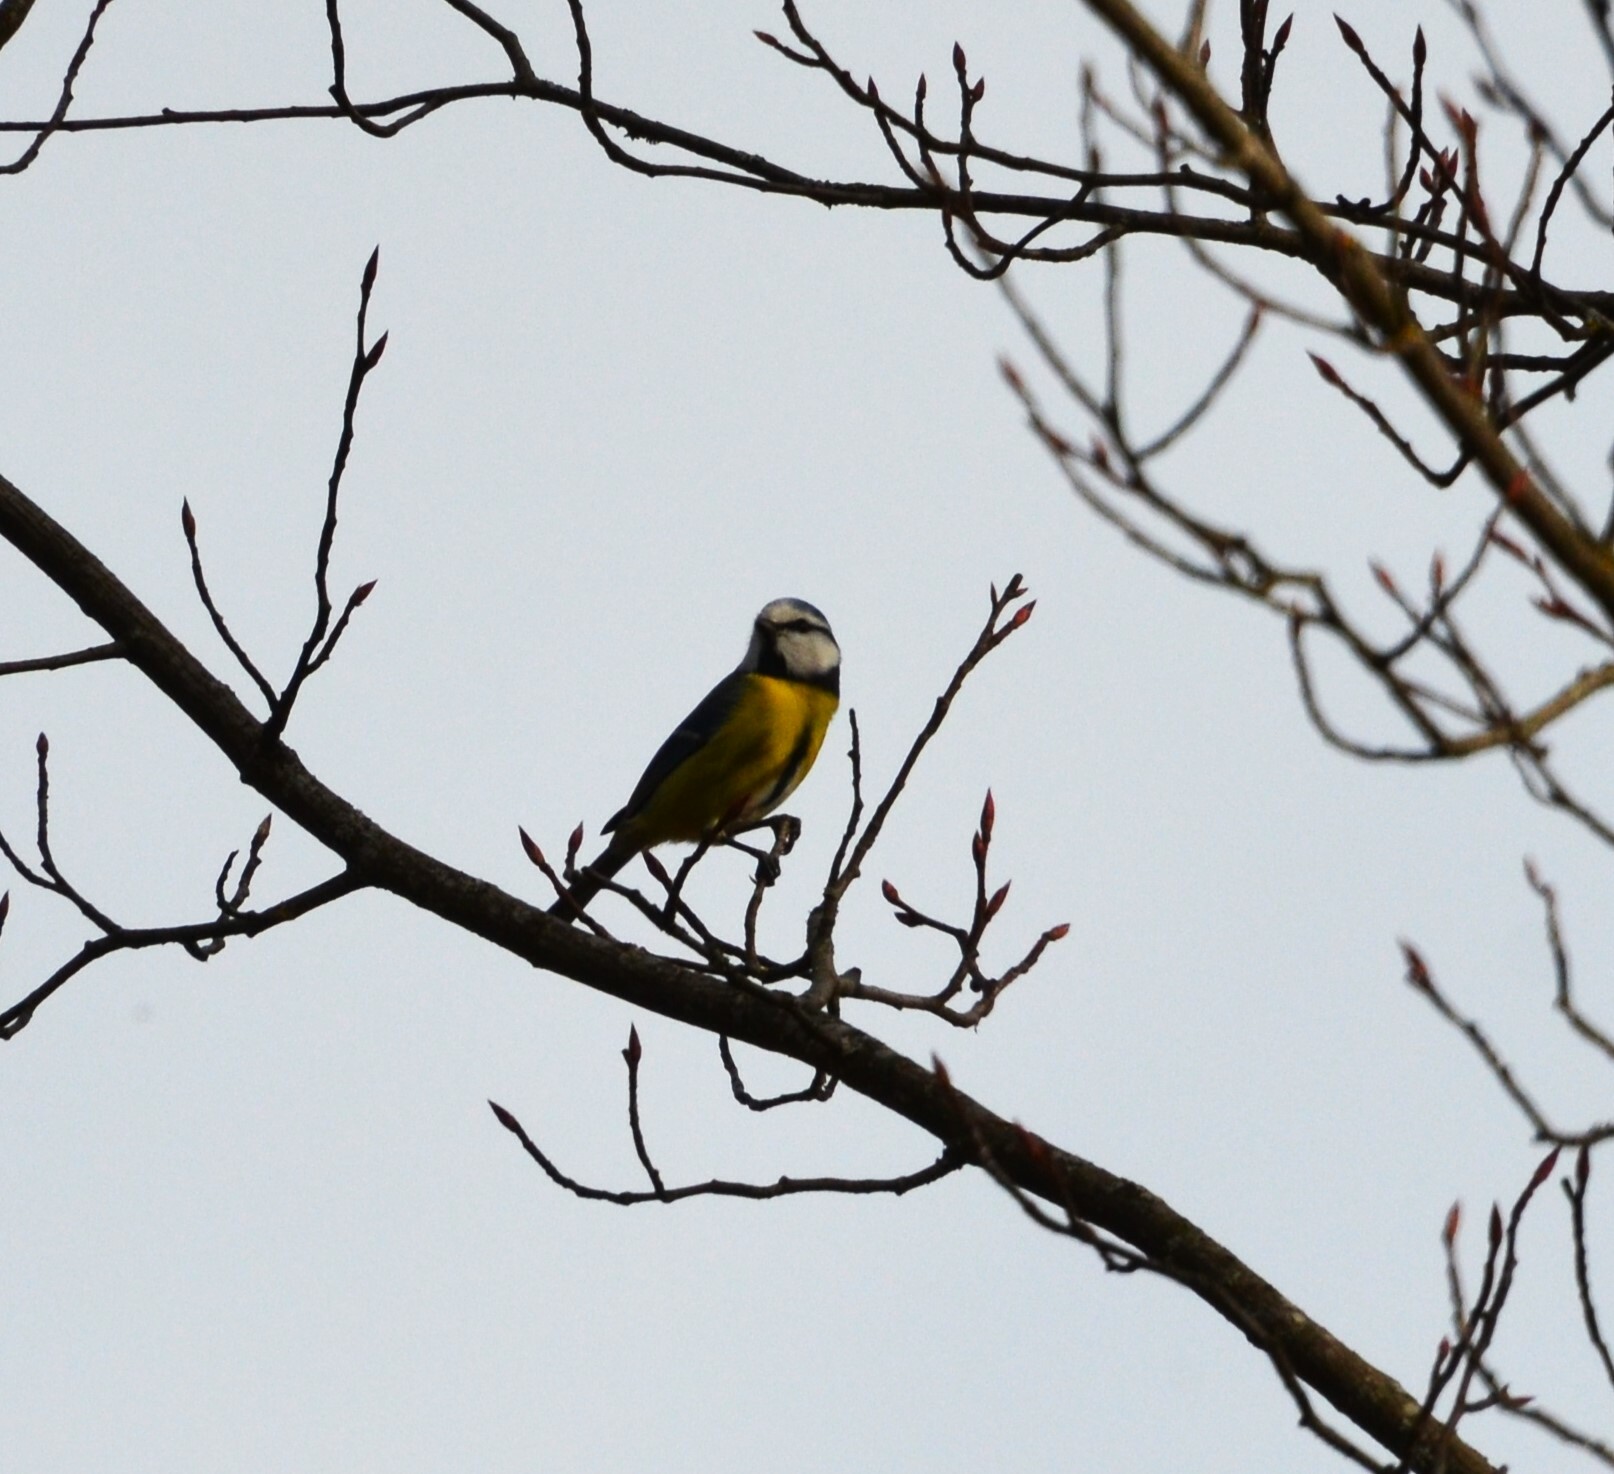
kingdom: Animalia
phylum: Chordata
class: Aves
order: Passeriformes
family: Paridae
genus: Cyanistes
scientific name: Cyanistes caeruleus
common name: Eurasian blue tit
